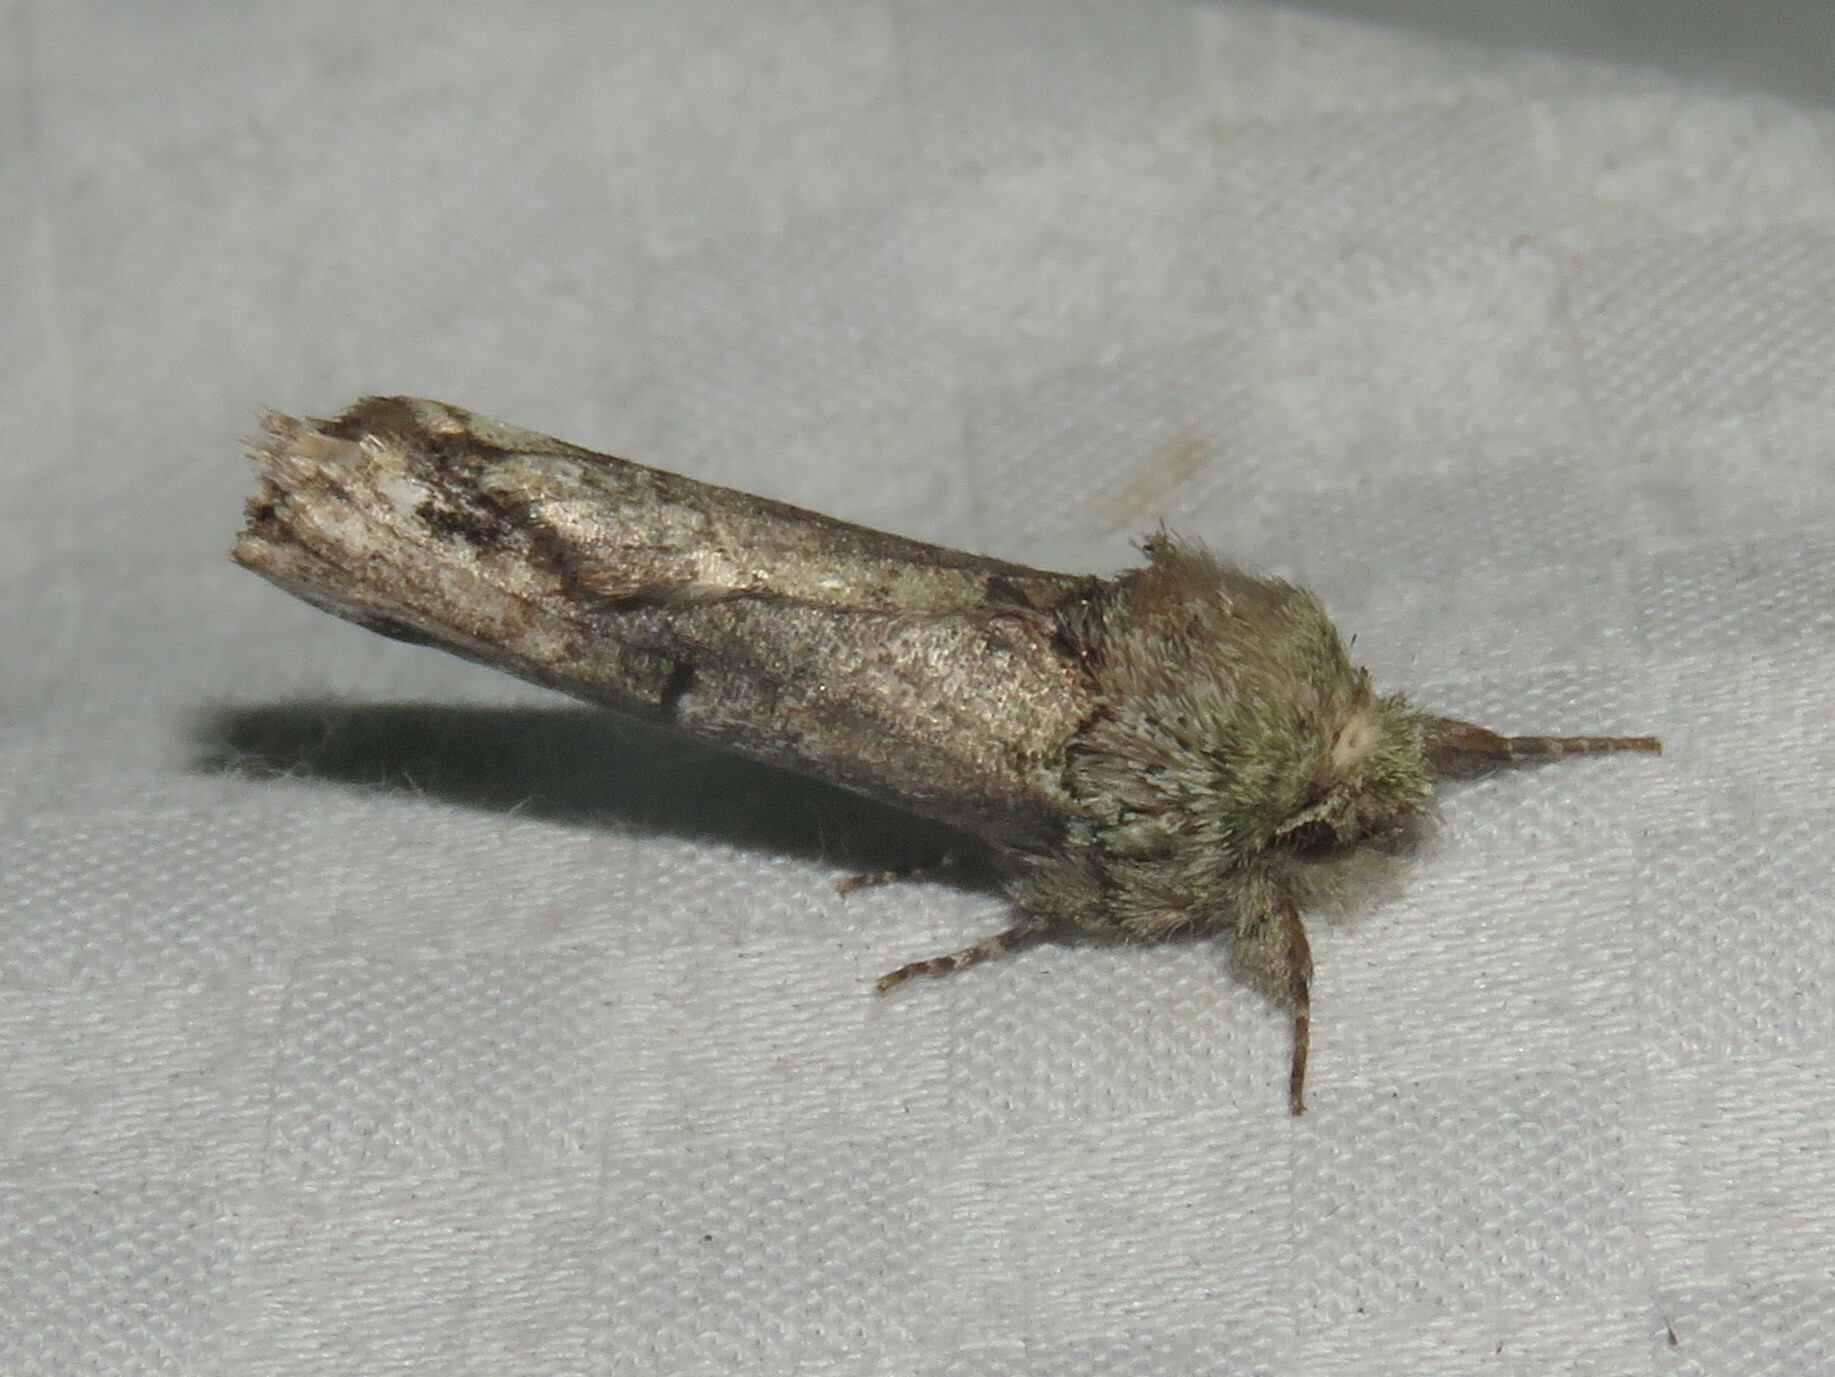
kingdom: Animalia
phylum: Arthropoda
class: Insecta
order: Lepidoptera
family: Notodontidae
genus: Schizura
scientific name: Schizura
